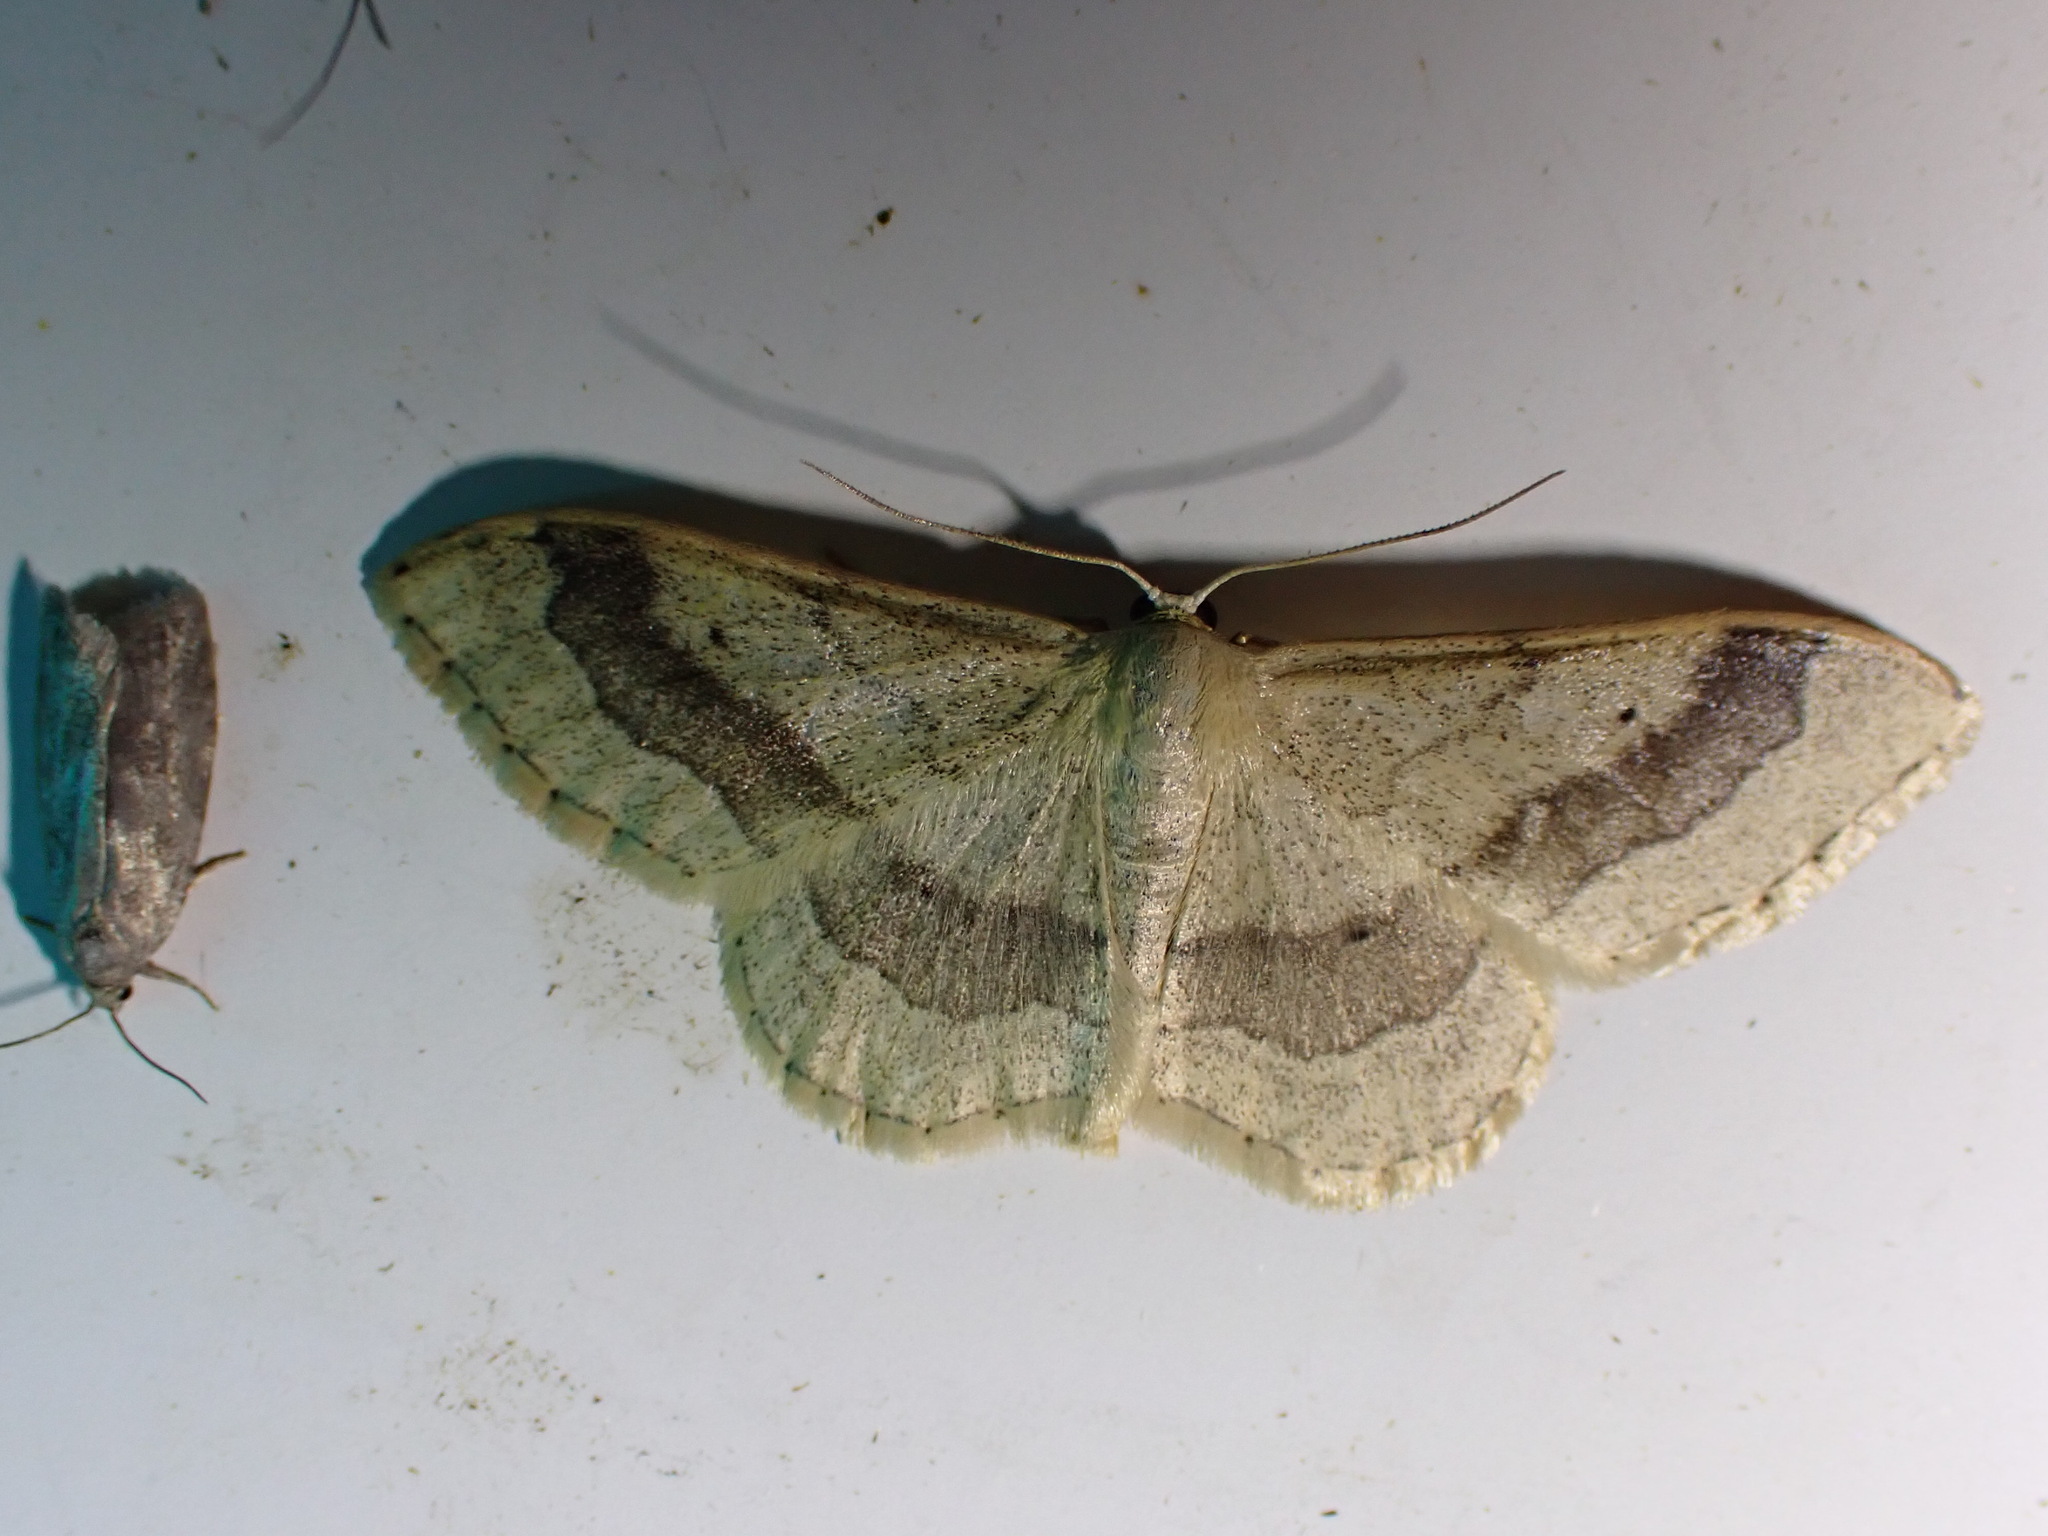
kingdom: Animalia
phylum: Arthropoda
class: Insecta
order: Lepidoptera
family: Geometridae
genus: Idaea
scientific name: Idaea aversata
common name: Riband wave
